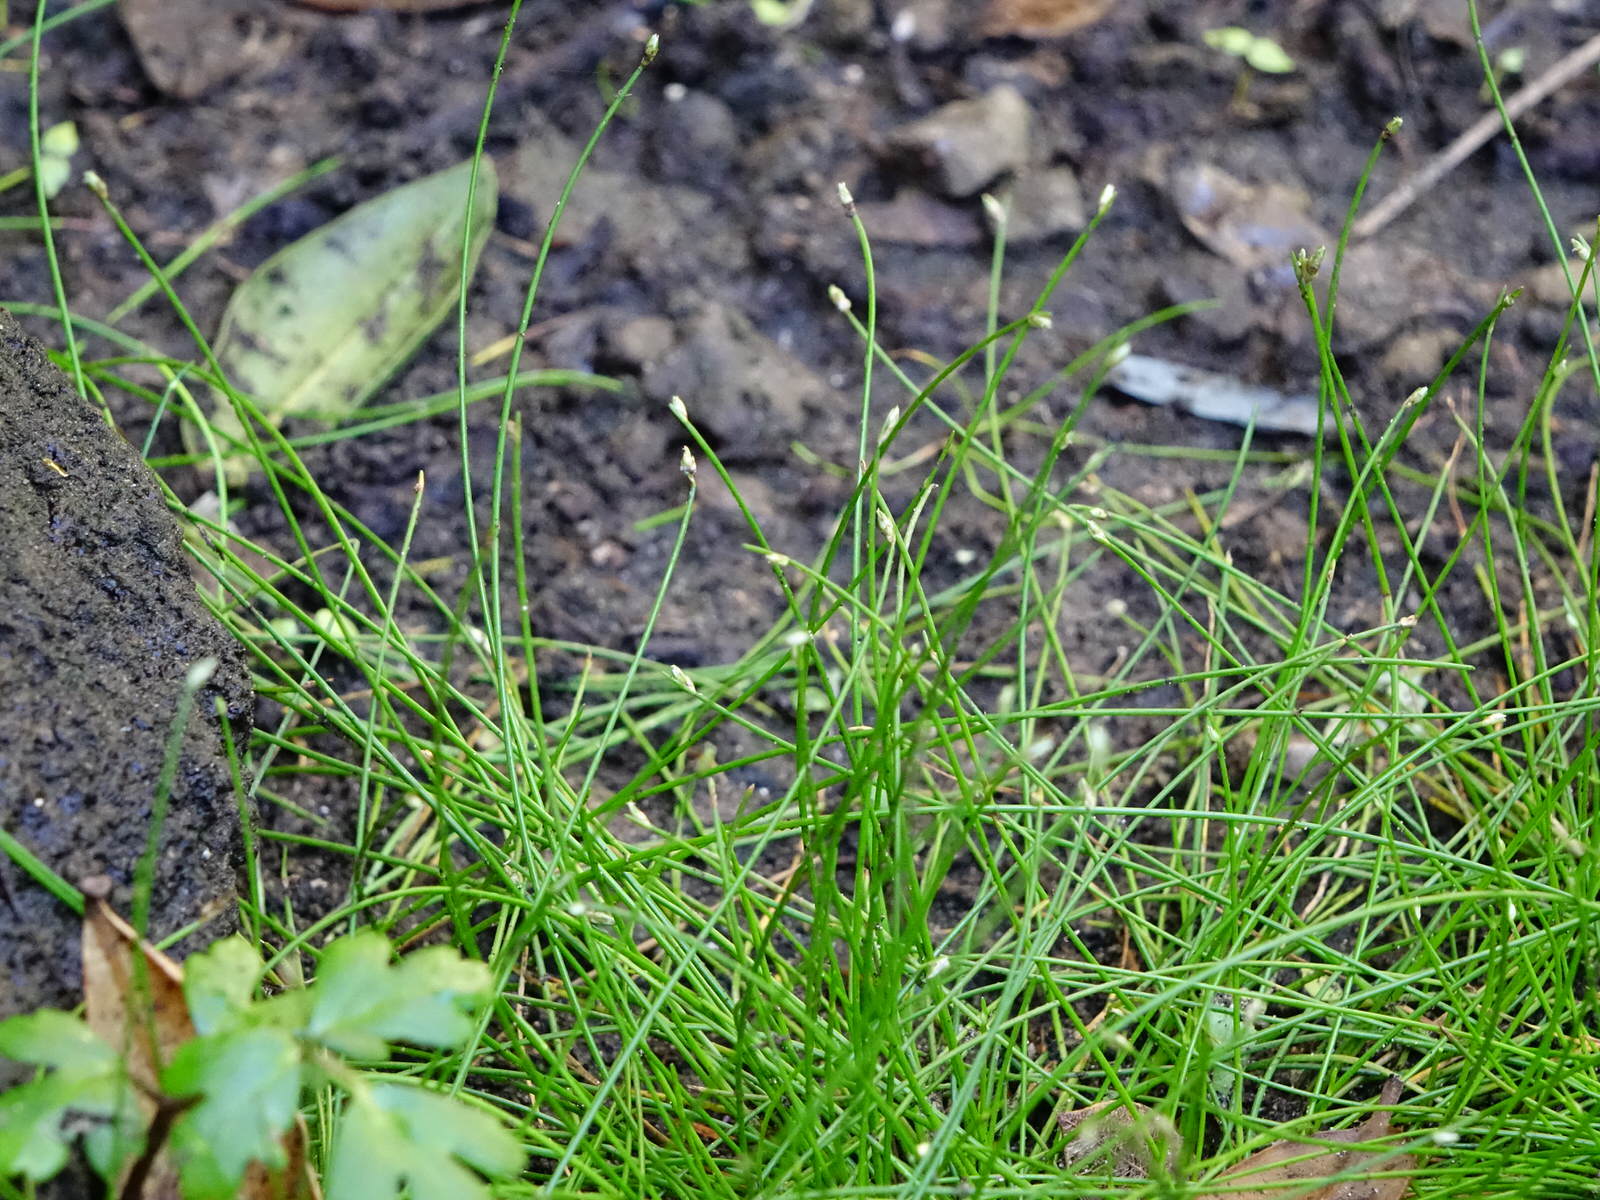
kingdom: Plantae
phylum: Tracheophyta
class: Liliopsida
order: Poales
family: Cyperaceae
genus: Isolepis
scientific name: Isolepis habra
